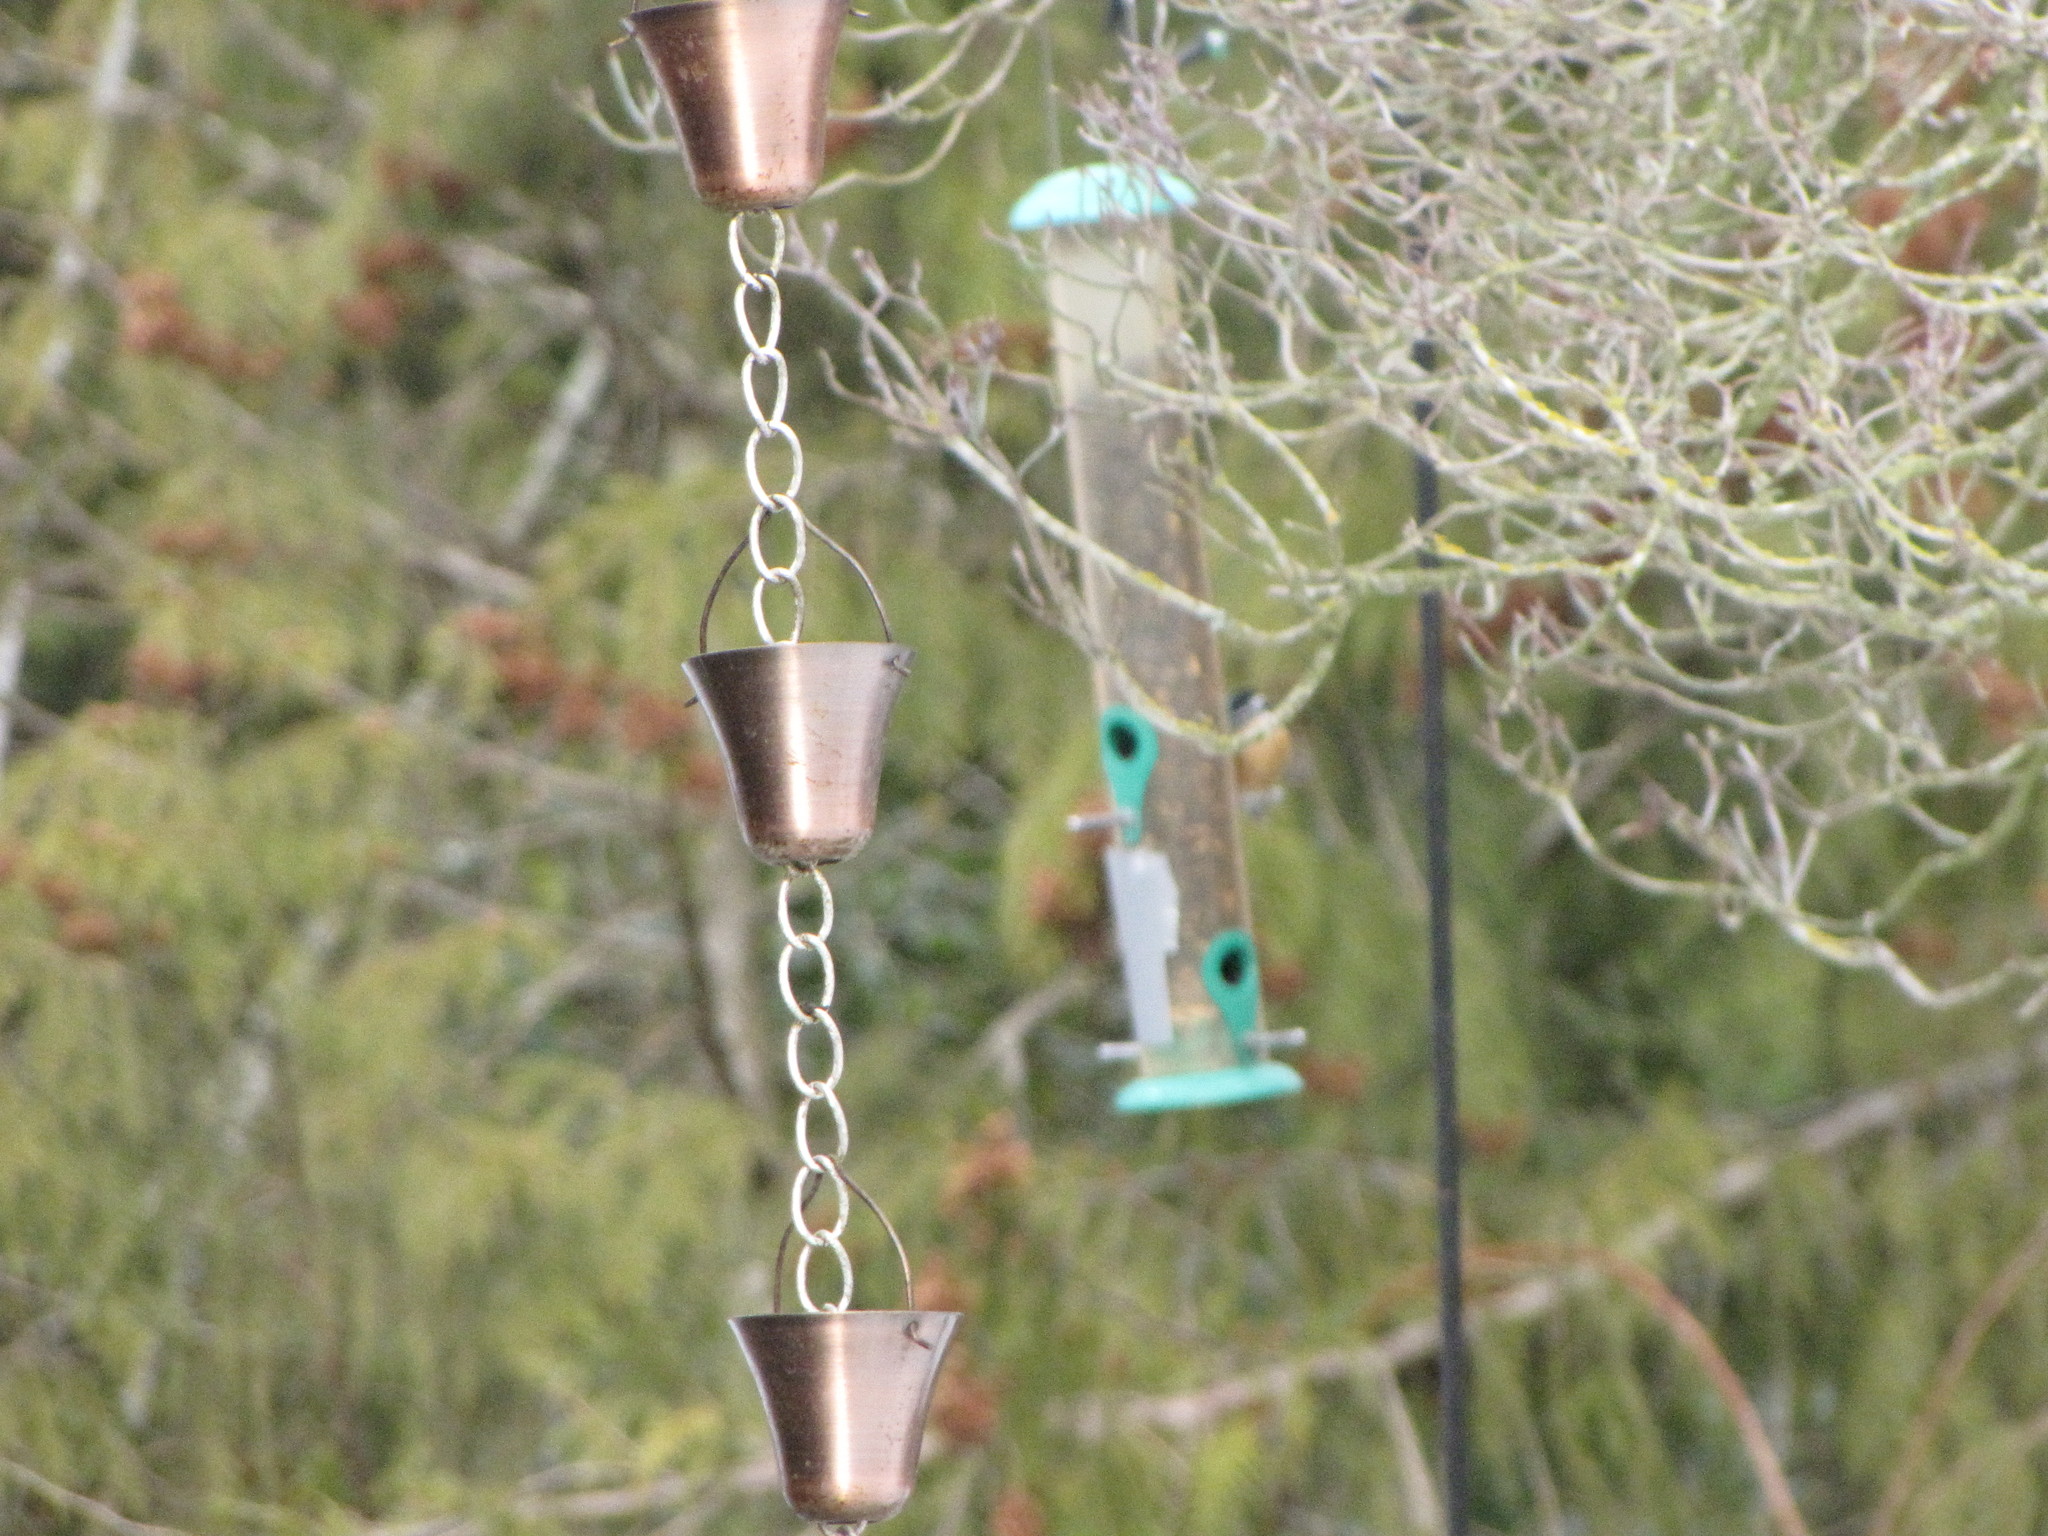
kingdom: Animalia
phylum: Chordata
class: Aves
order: Passeriformes
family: Sittidae
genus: Sitta
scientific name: Sitta canadensis
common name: Red-breasted nuthatch
